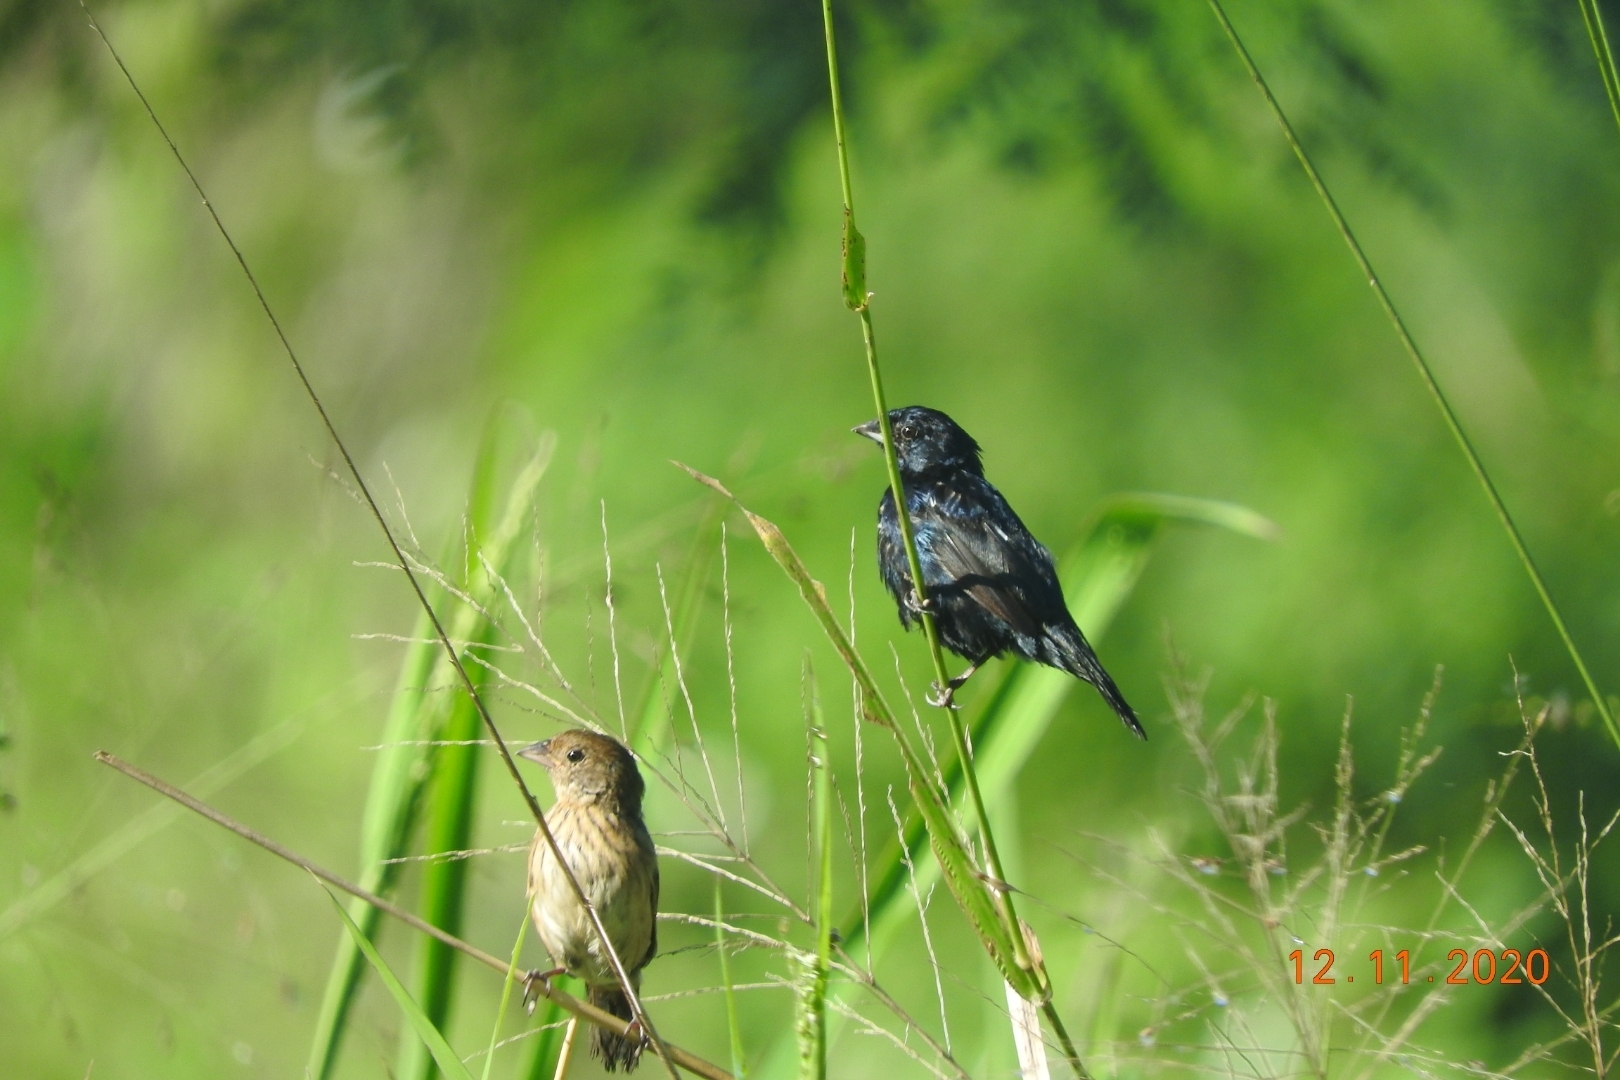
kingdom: Animalia
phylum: Chordata
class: Aves
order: Passeriformes
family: Thraupidae
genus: Volatinia
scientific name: Volatinia jacarina
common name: Blue-black grassquit
